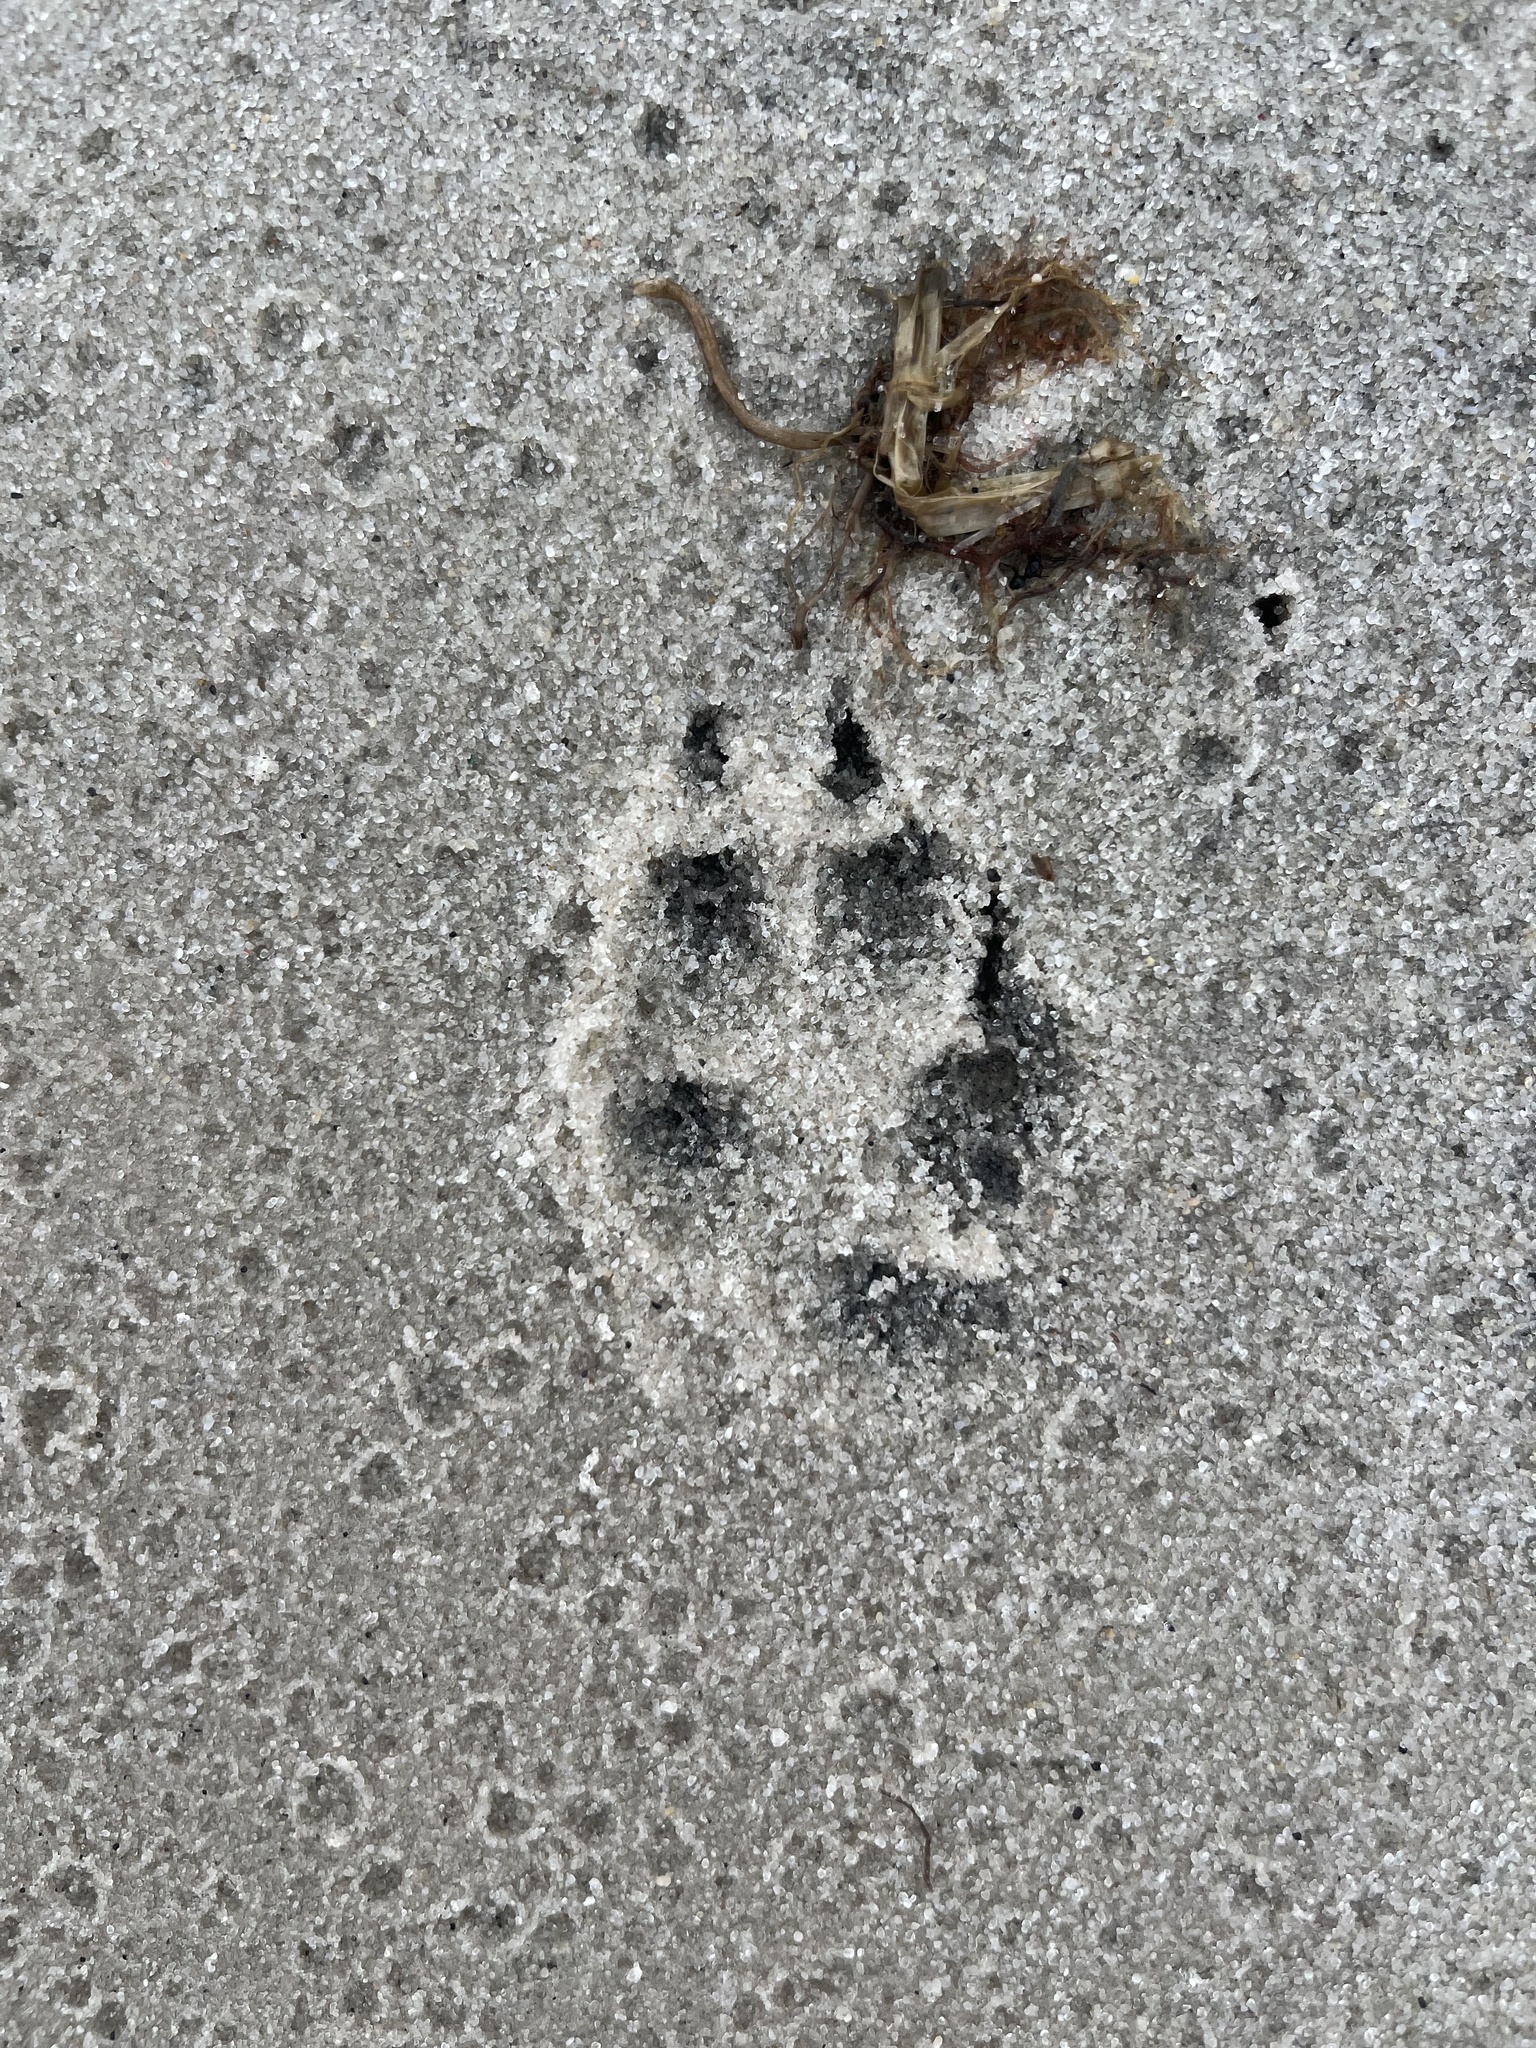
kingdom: Animalia
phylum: Chordata
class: Mammalia
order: Carnivora
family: Canidae
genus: Vulpes
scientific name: Vulpes vulpes
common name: Red fox
